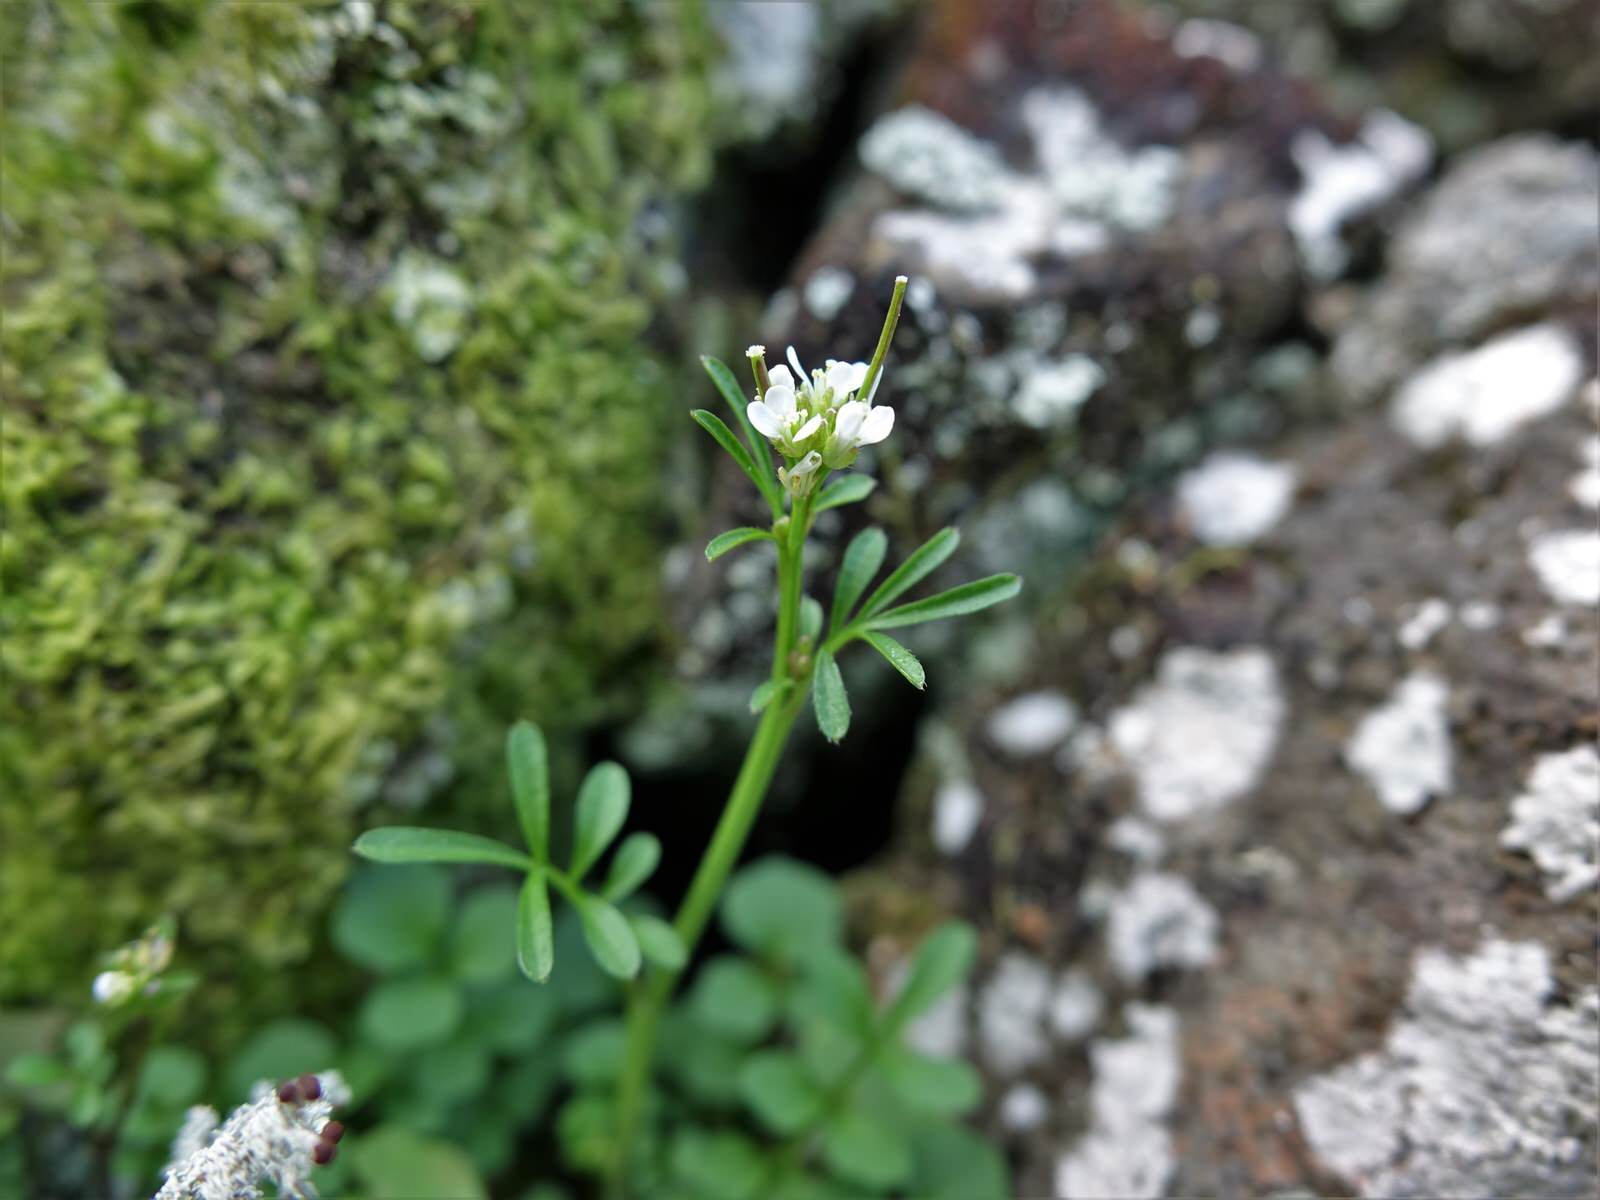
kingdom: Plantae
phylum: Tracheophyta
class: Magnoliopsida
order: Brassicales
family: Brassicaceae
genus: Cardamine
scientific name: Cardamine hirsuta
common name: Hairy bittercress
